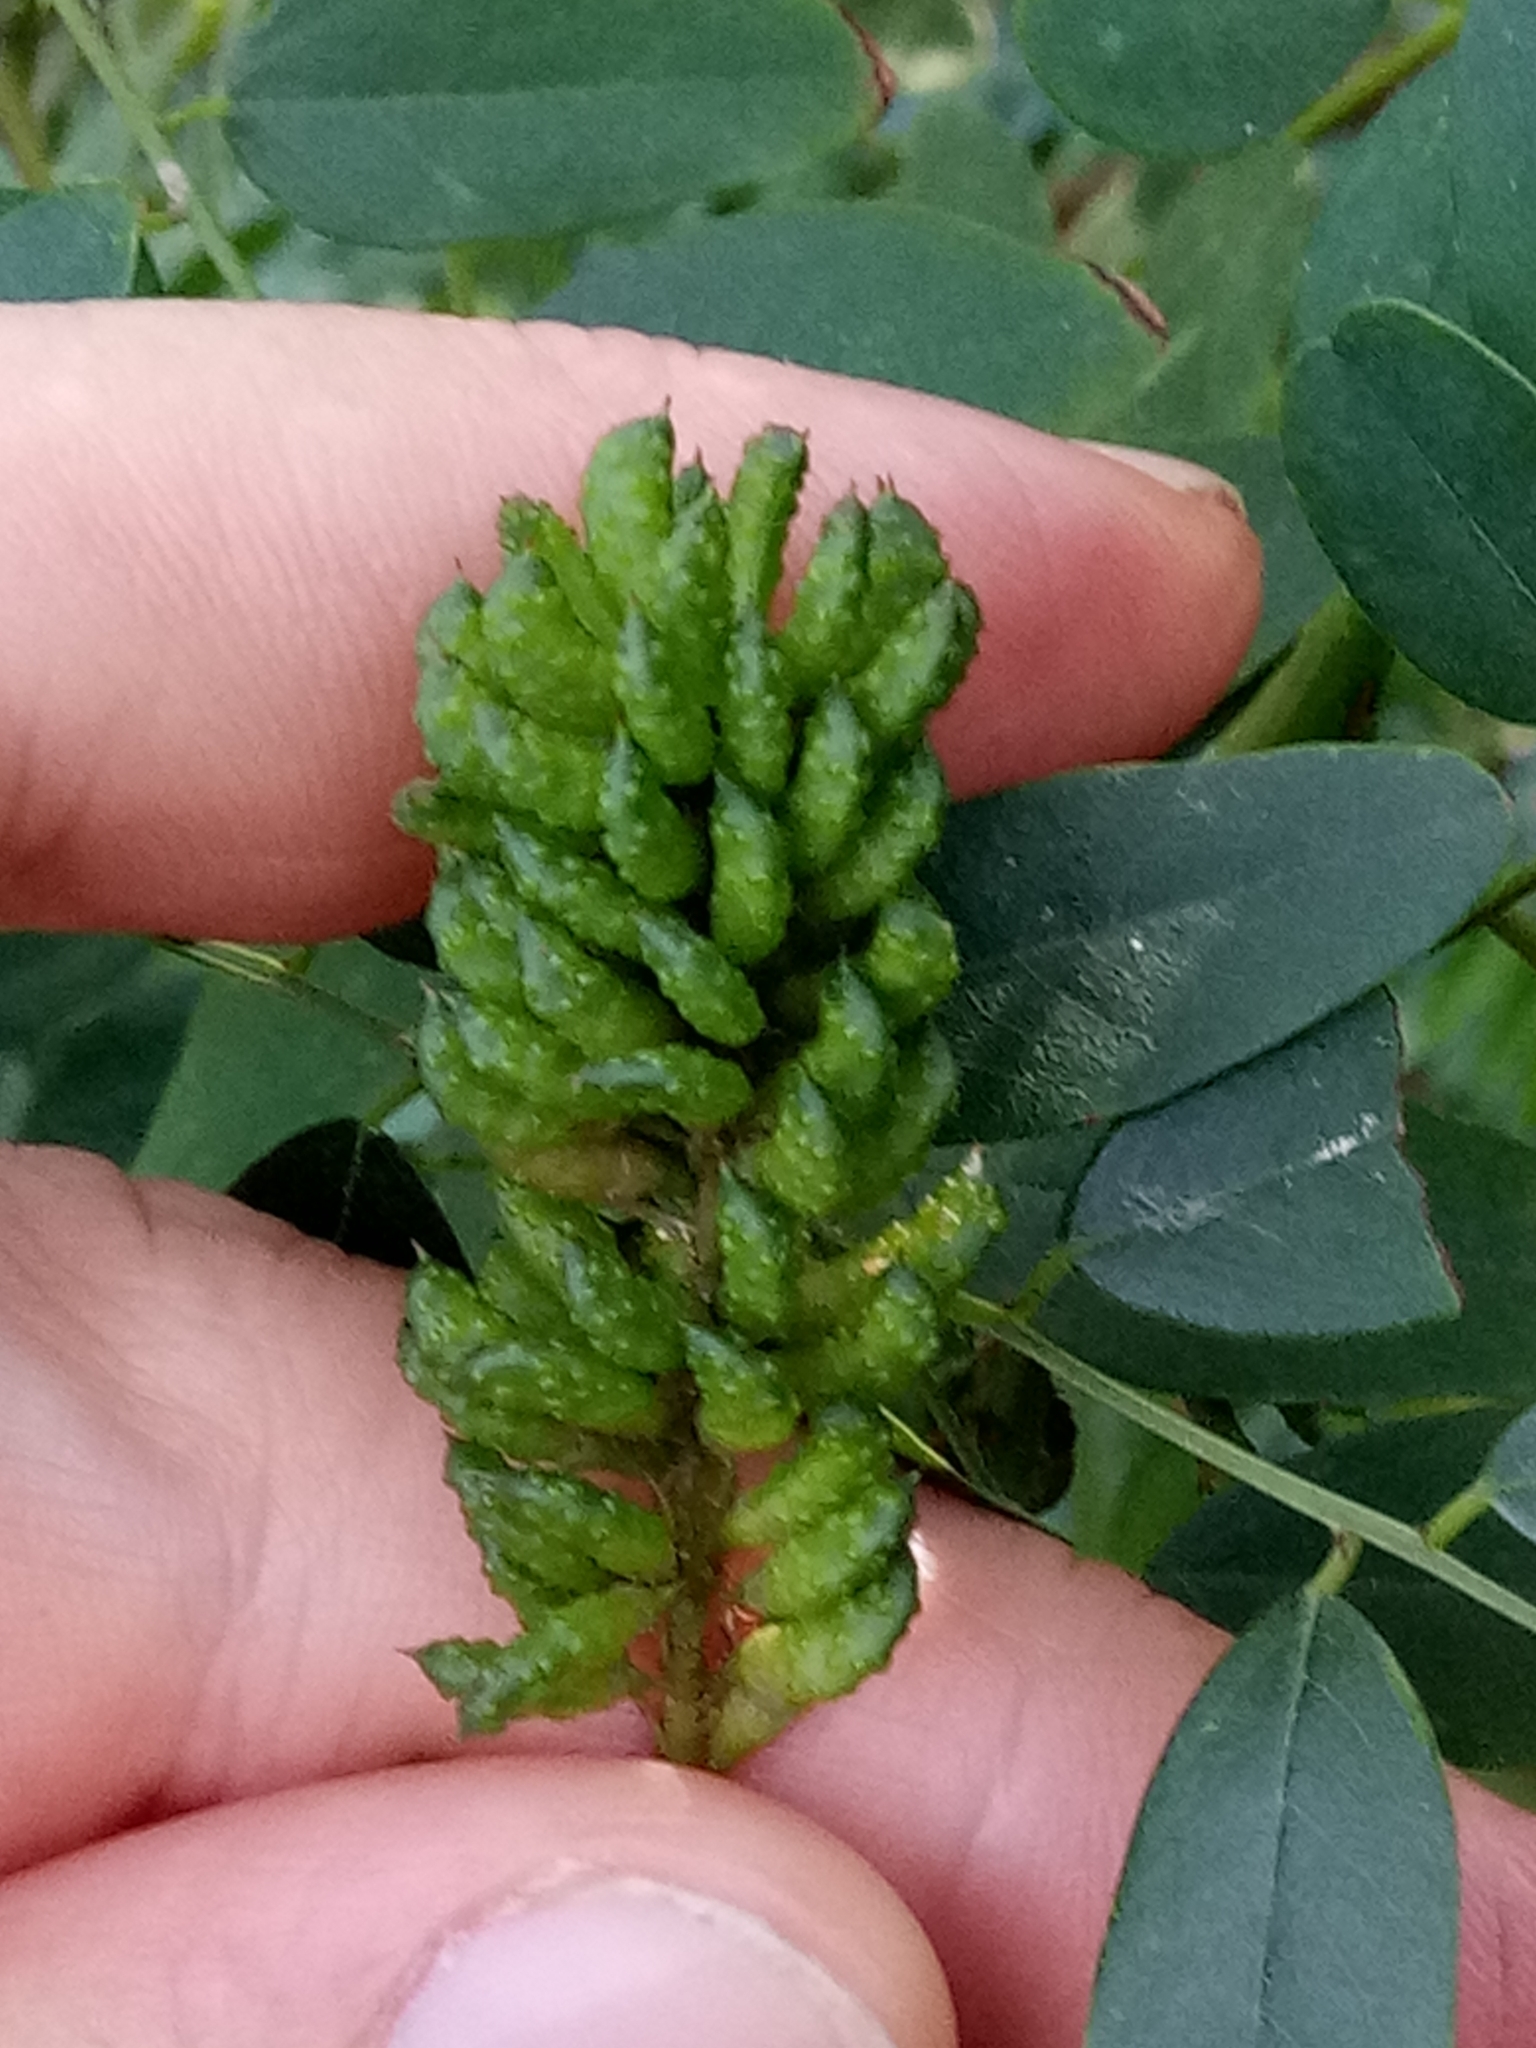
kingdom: Plantae
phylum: Tracheophyta
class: Magnoliopsida
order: Fabales
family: Fabaceae
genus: Amorpha
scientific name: Amorpha fruticosa
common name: False indigo
